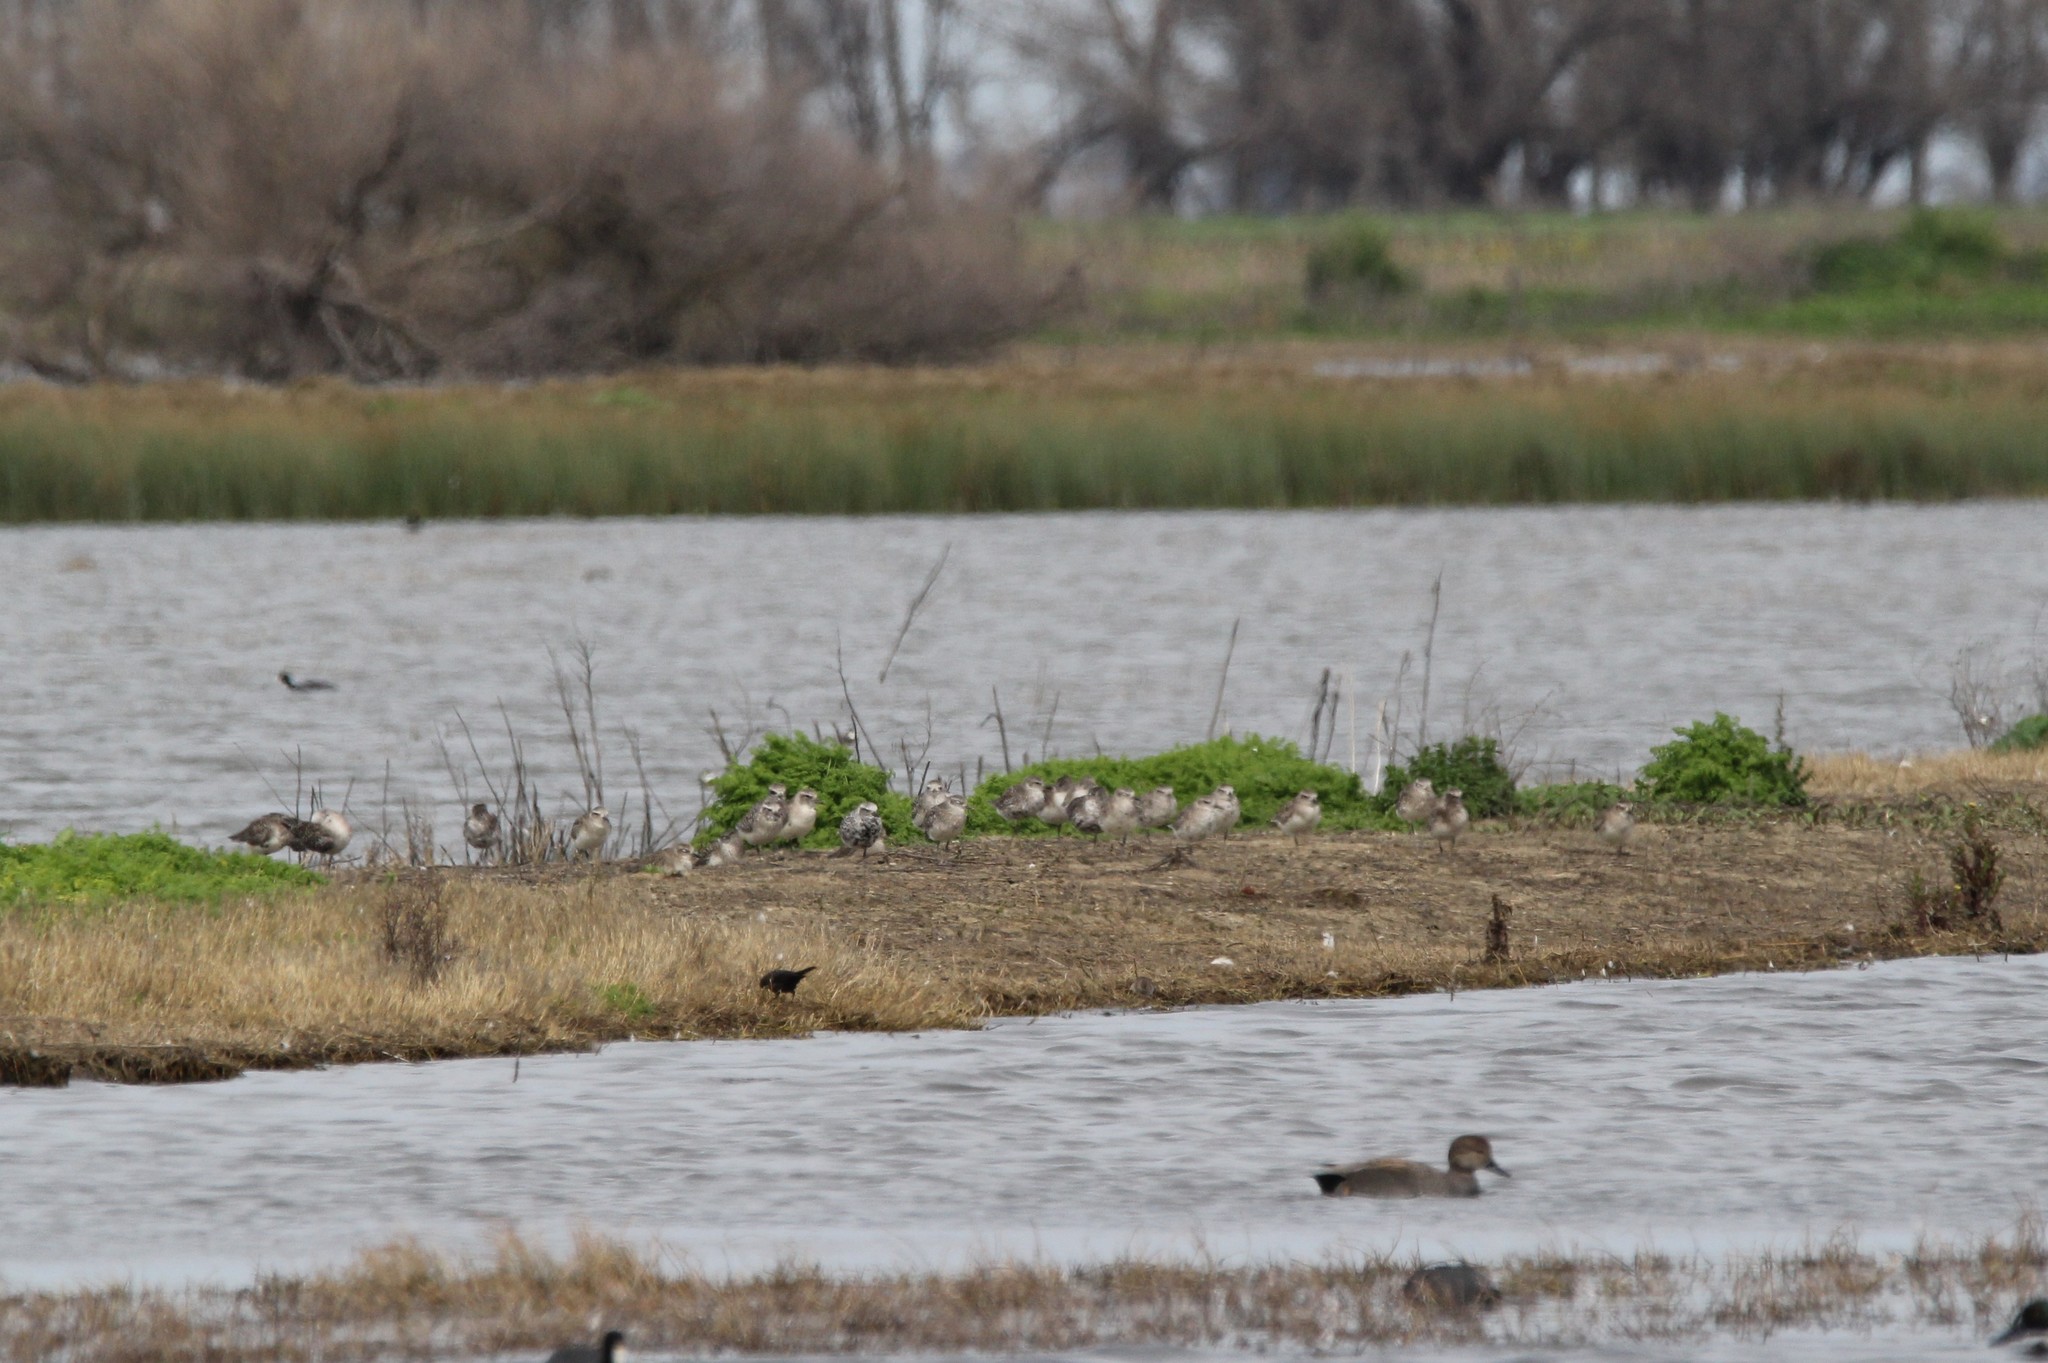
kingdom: Animalia
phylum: Chordata
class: Aves
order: Charadriiformes
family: Charadriidae
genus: Pluvialis
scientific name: Pluvialis squatarola
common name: Grey plover
